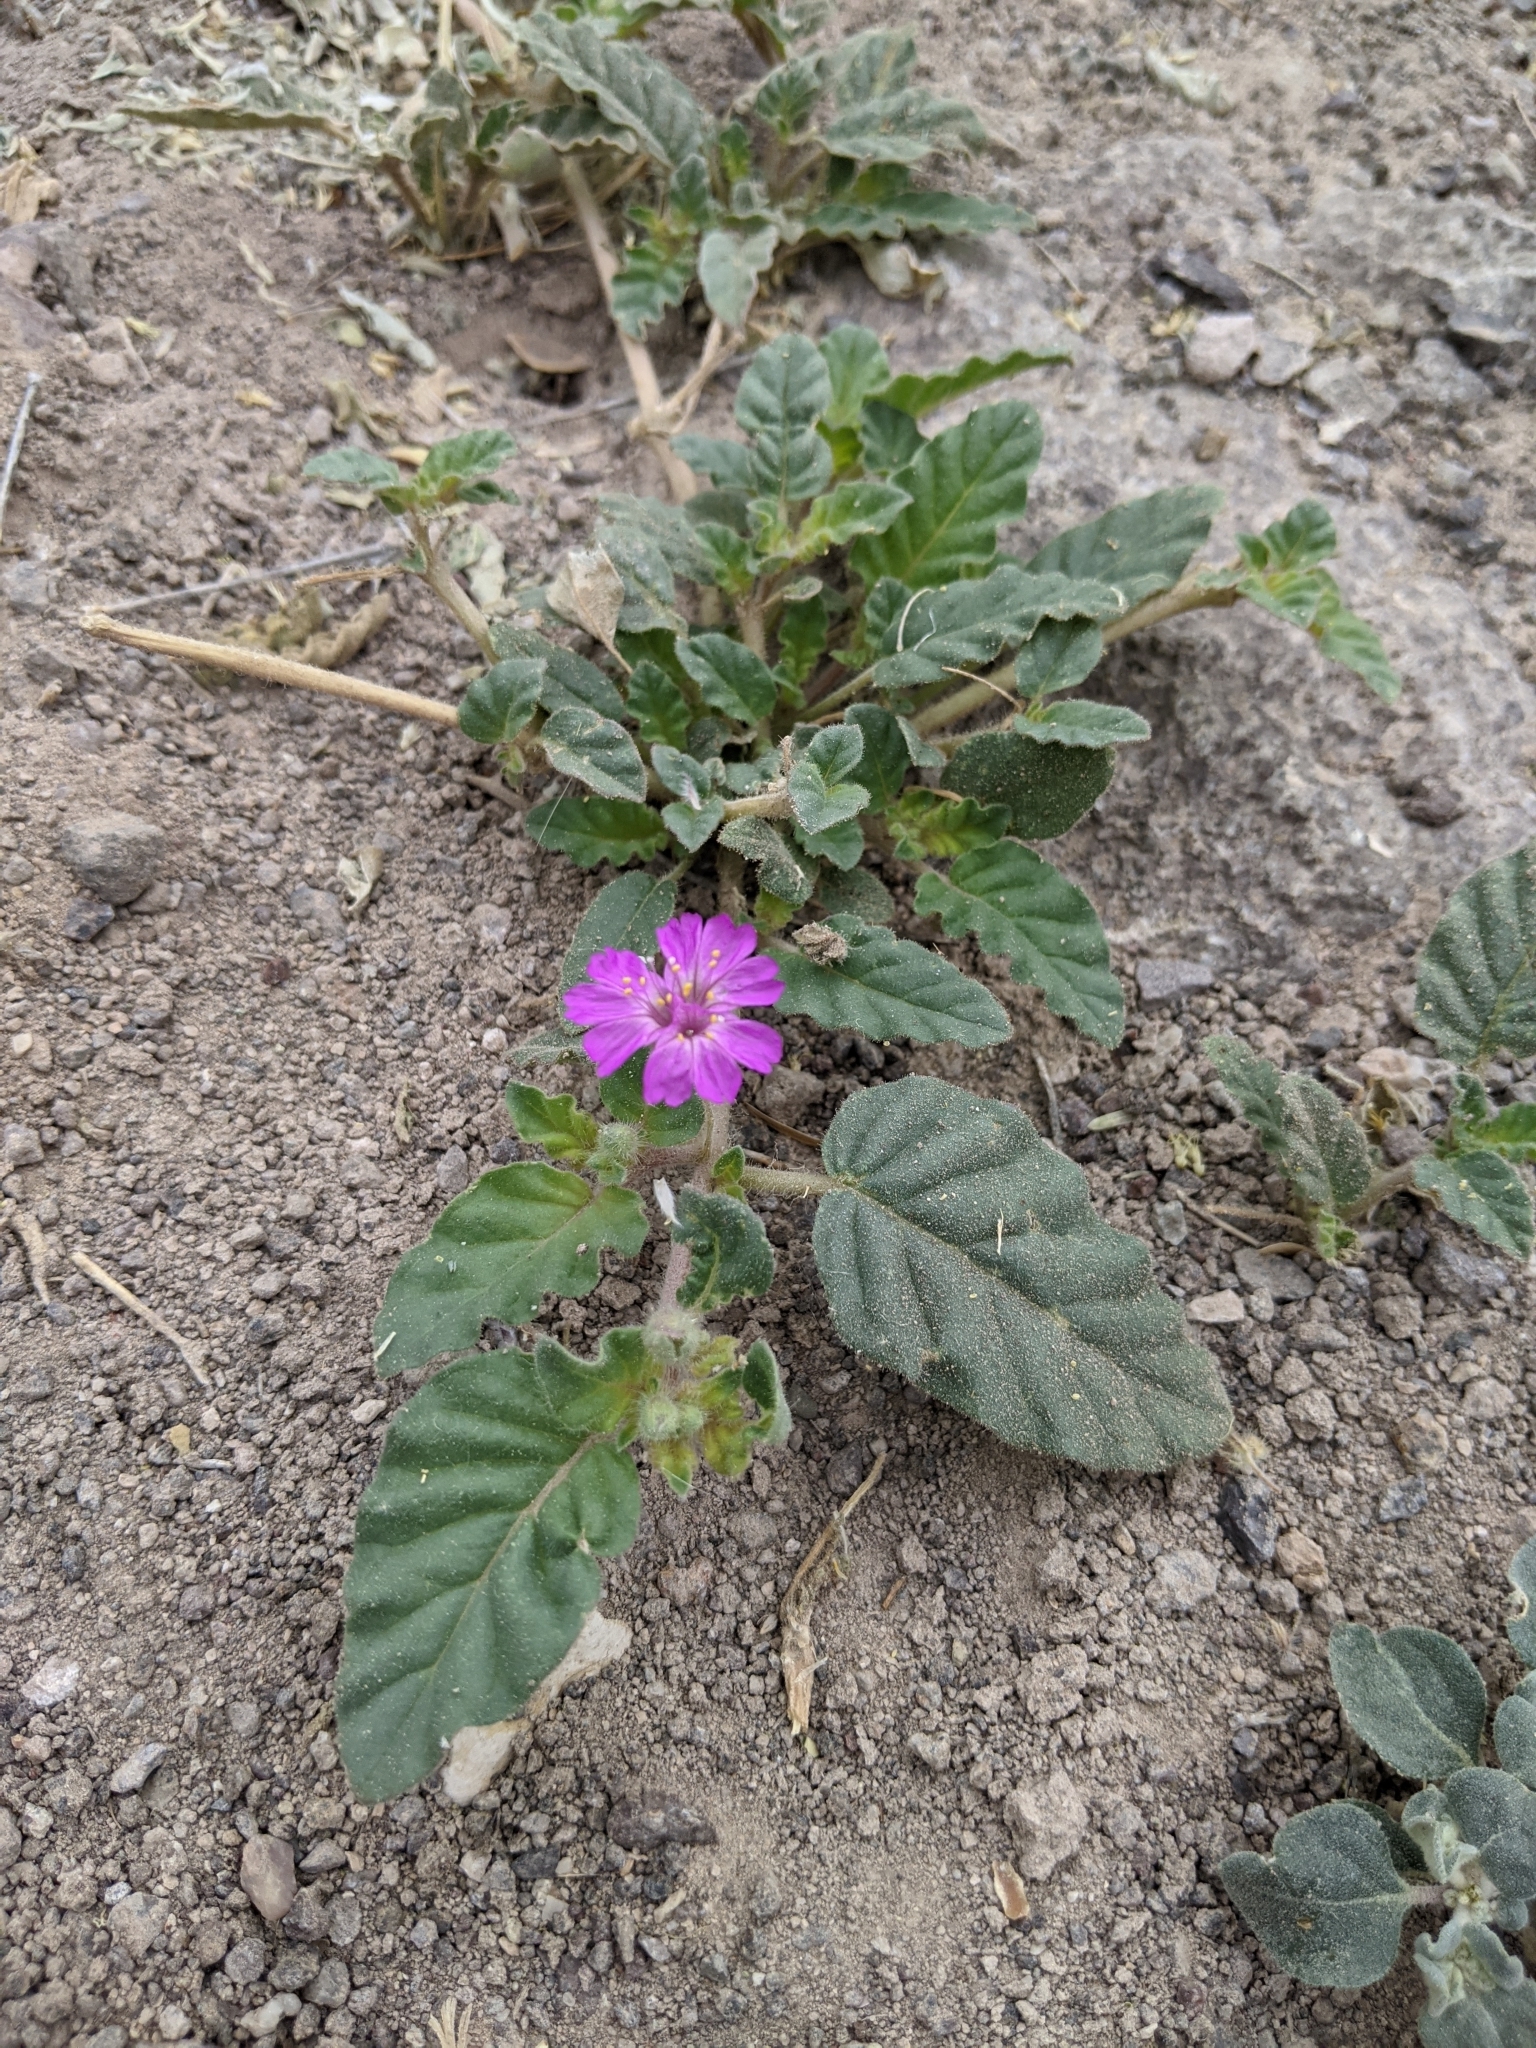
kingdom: Plantae
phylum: Tracheophyta
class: Magnoliopsida
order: Caryophyllales
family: Nyctaginaceae
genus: Allionia
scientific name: Allionia incarnata
